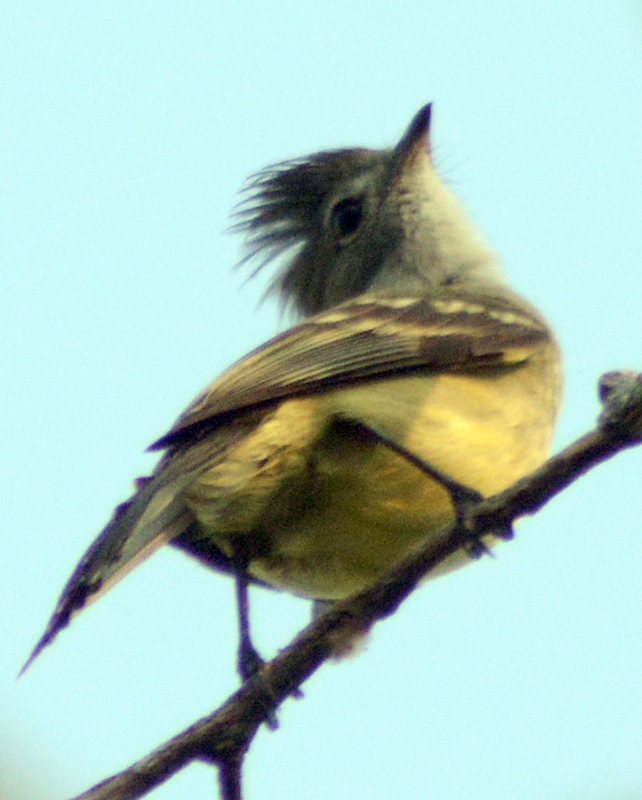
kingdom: Animalia
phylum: Chordata
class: Aves
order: Passeriformes
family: Tyrannidae
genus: Elaenia
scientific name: Elaenia flavogaster
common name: Yellow-bellied elaenia
